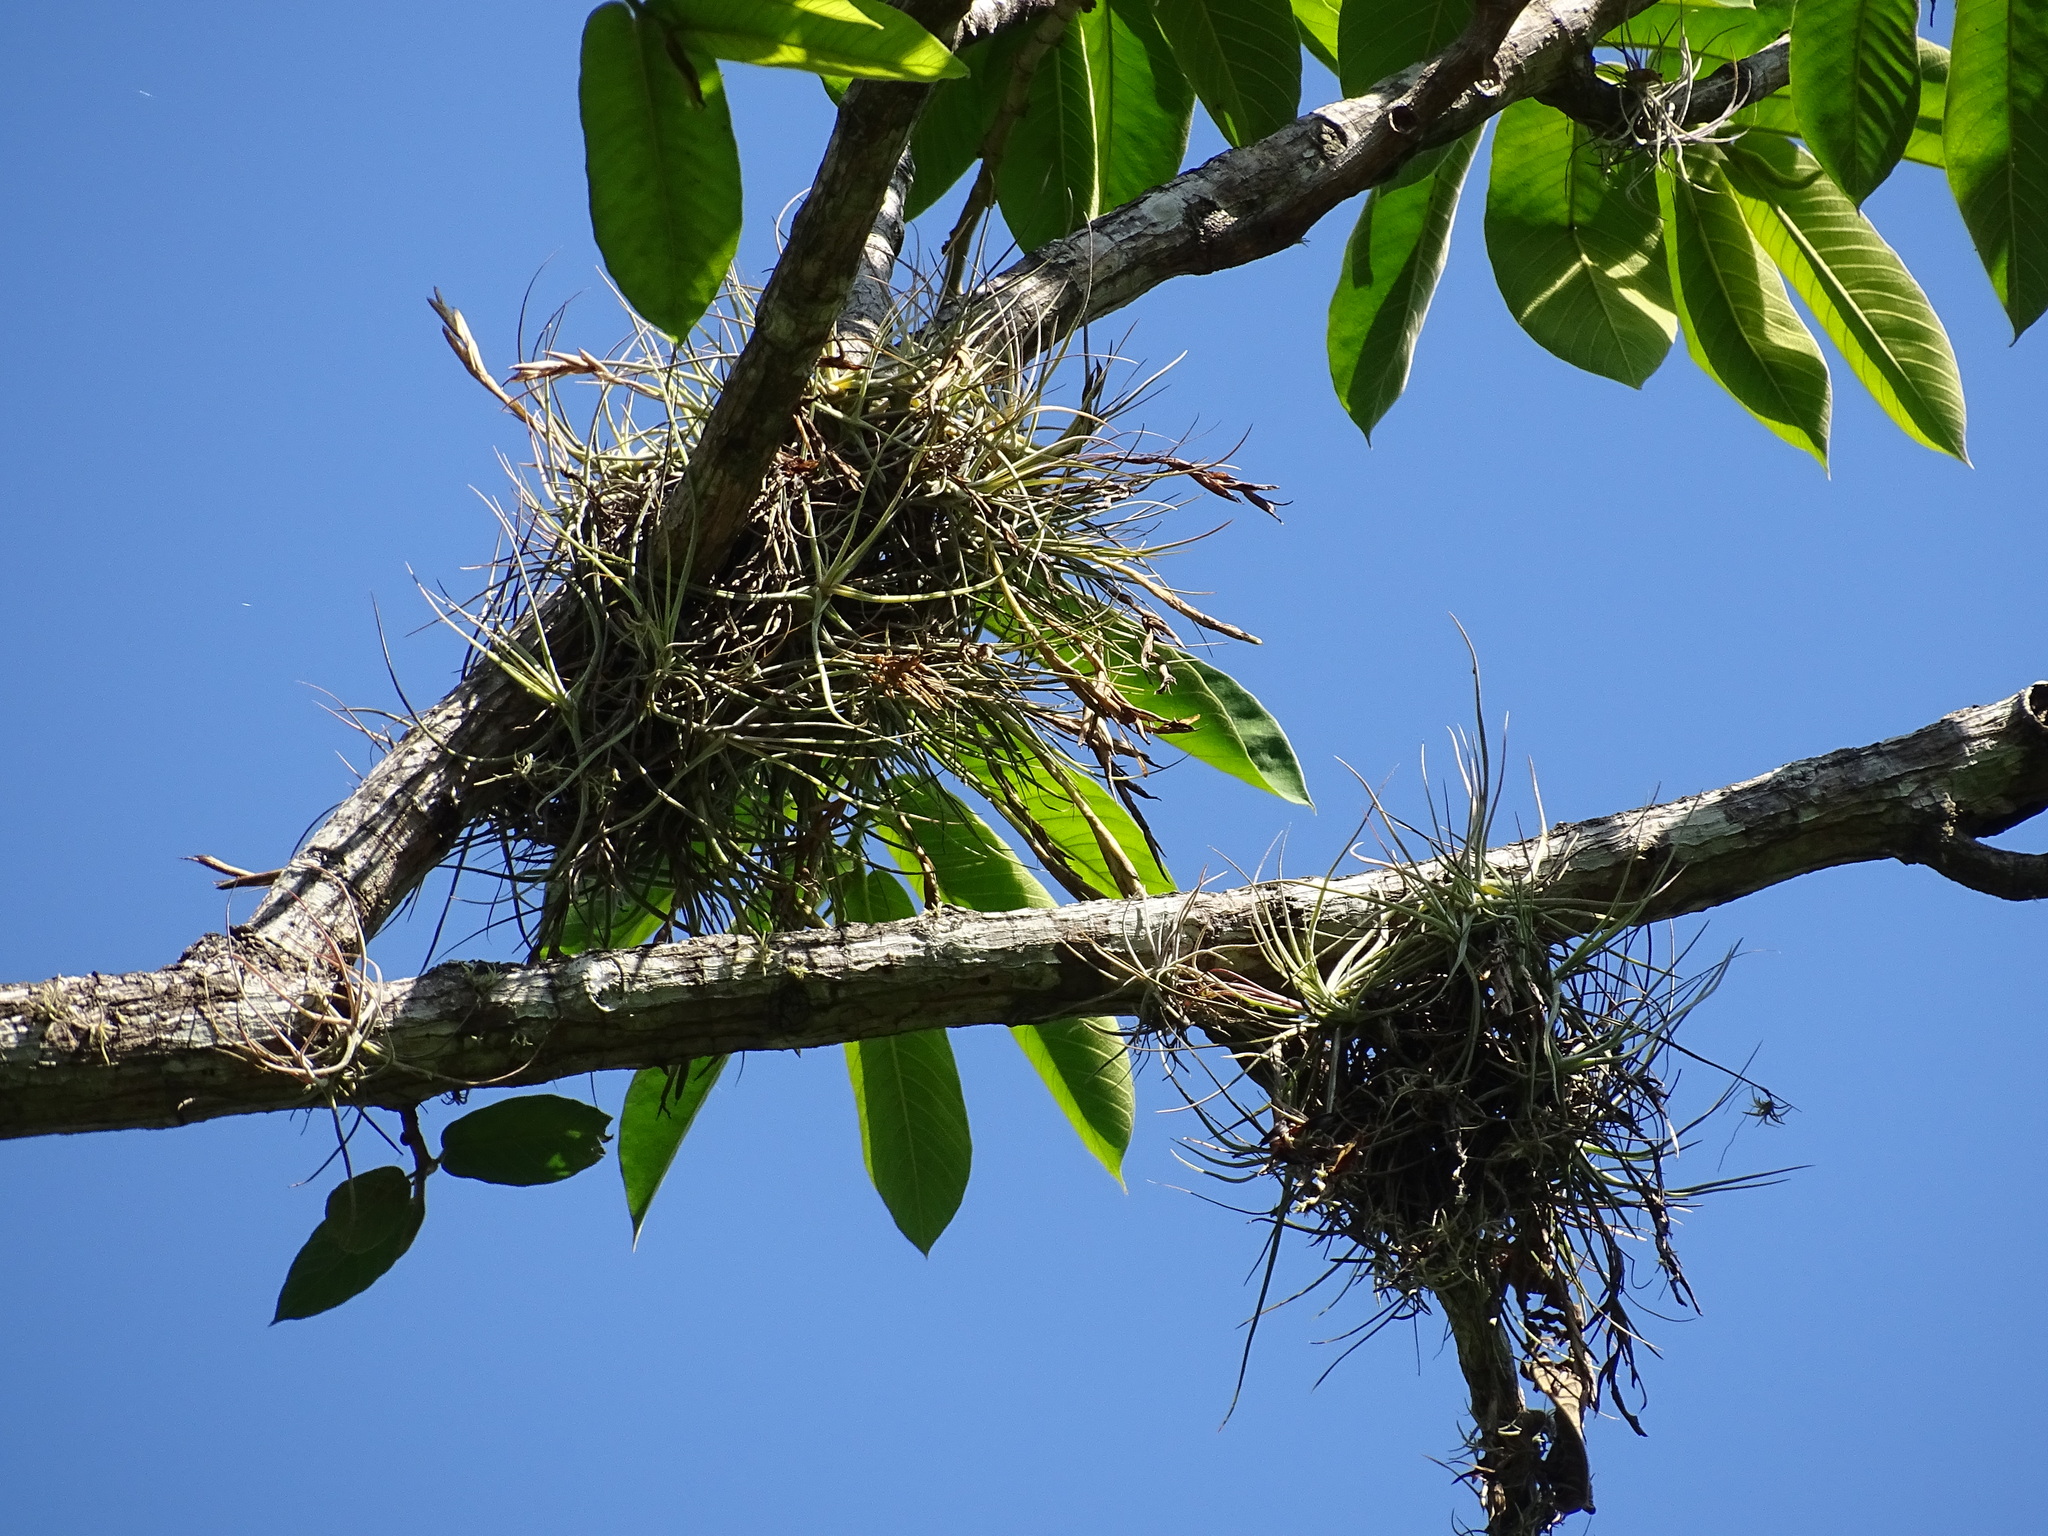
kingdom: Plantae
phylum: Tracheophyta
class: Liliopsida
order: Poales
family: Bromeliaceae
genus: Tillandsia
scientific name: Tillandsia schiedeana
